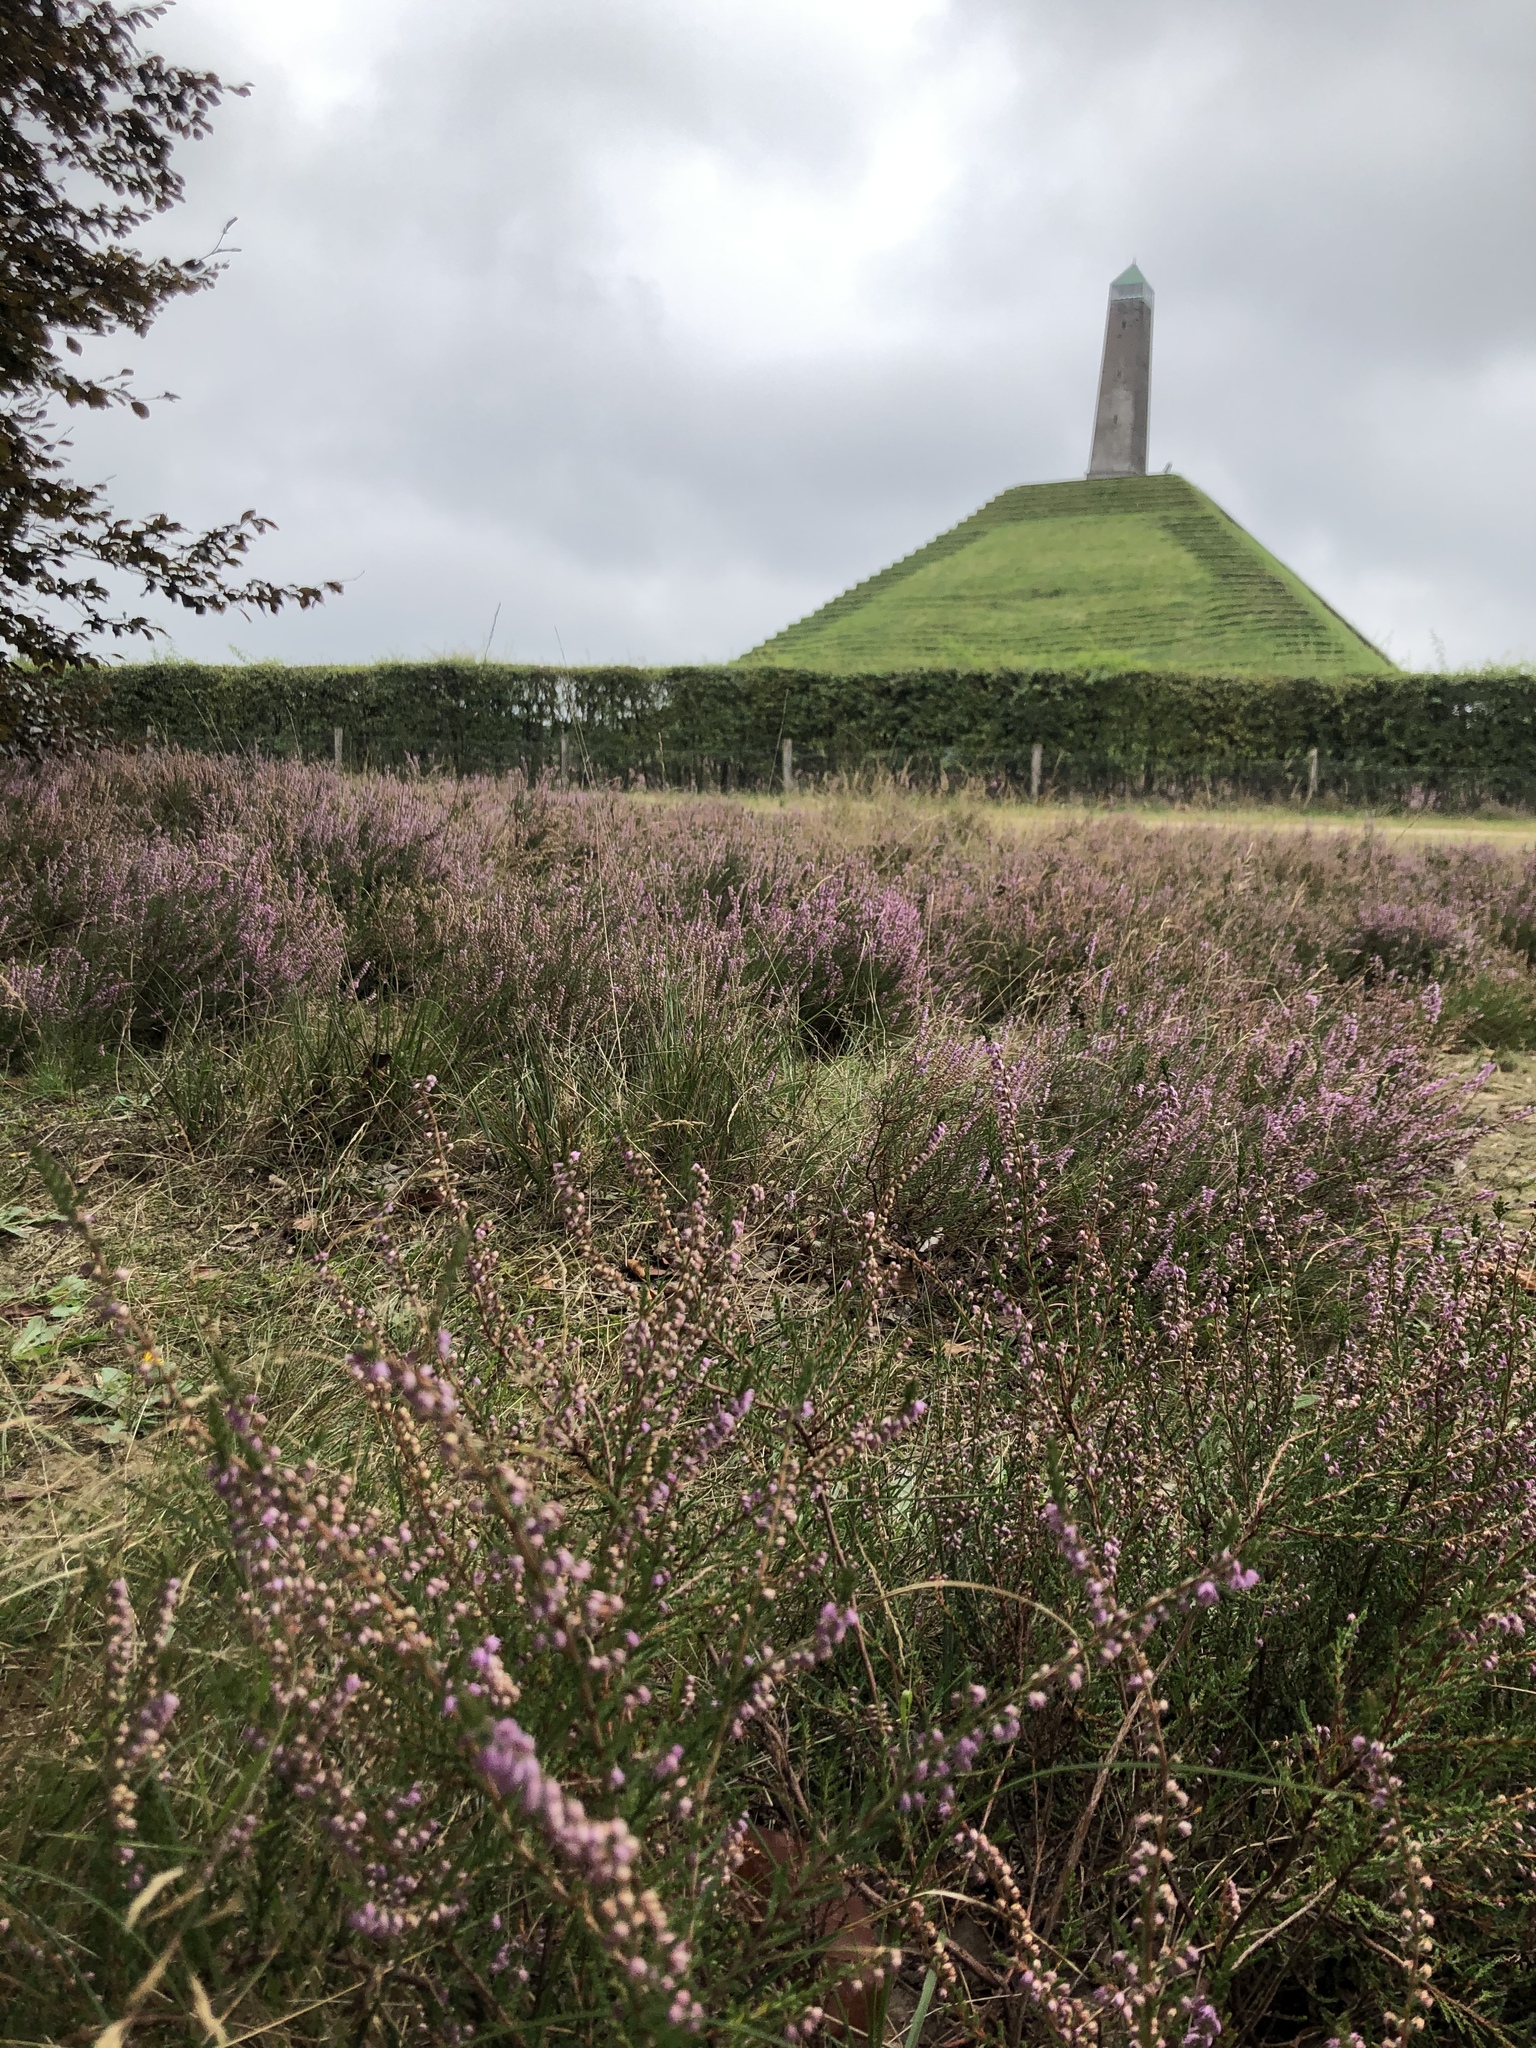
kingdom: Plantae
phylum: Tracheophyta
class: Magnoliopsida
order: Ericales
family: Ericaceae
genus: Calluna
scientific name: Calluna vulgaris
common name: Heather
